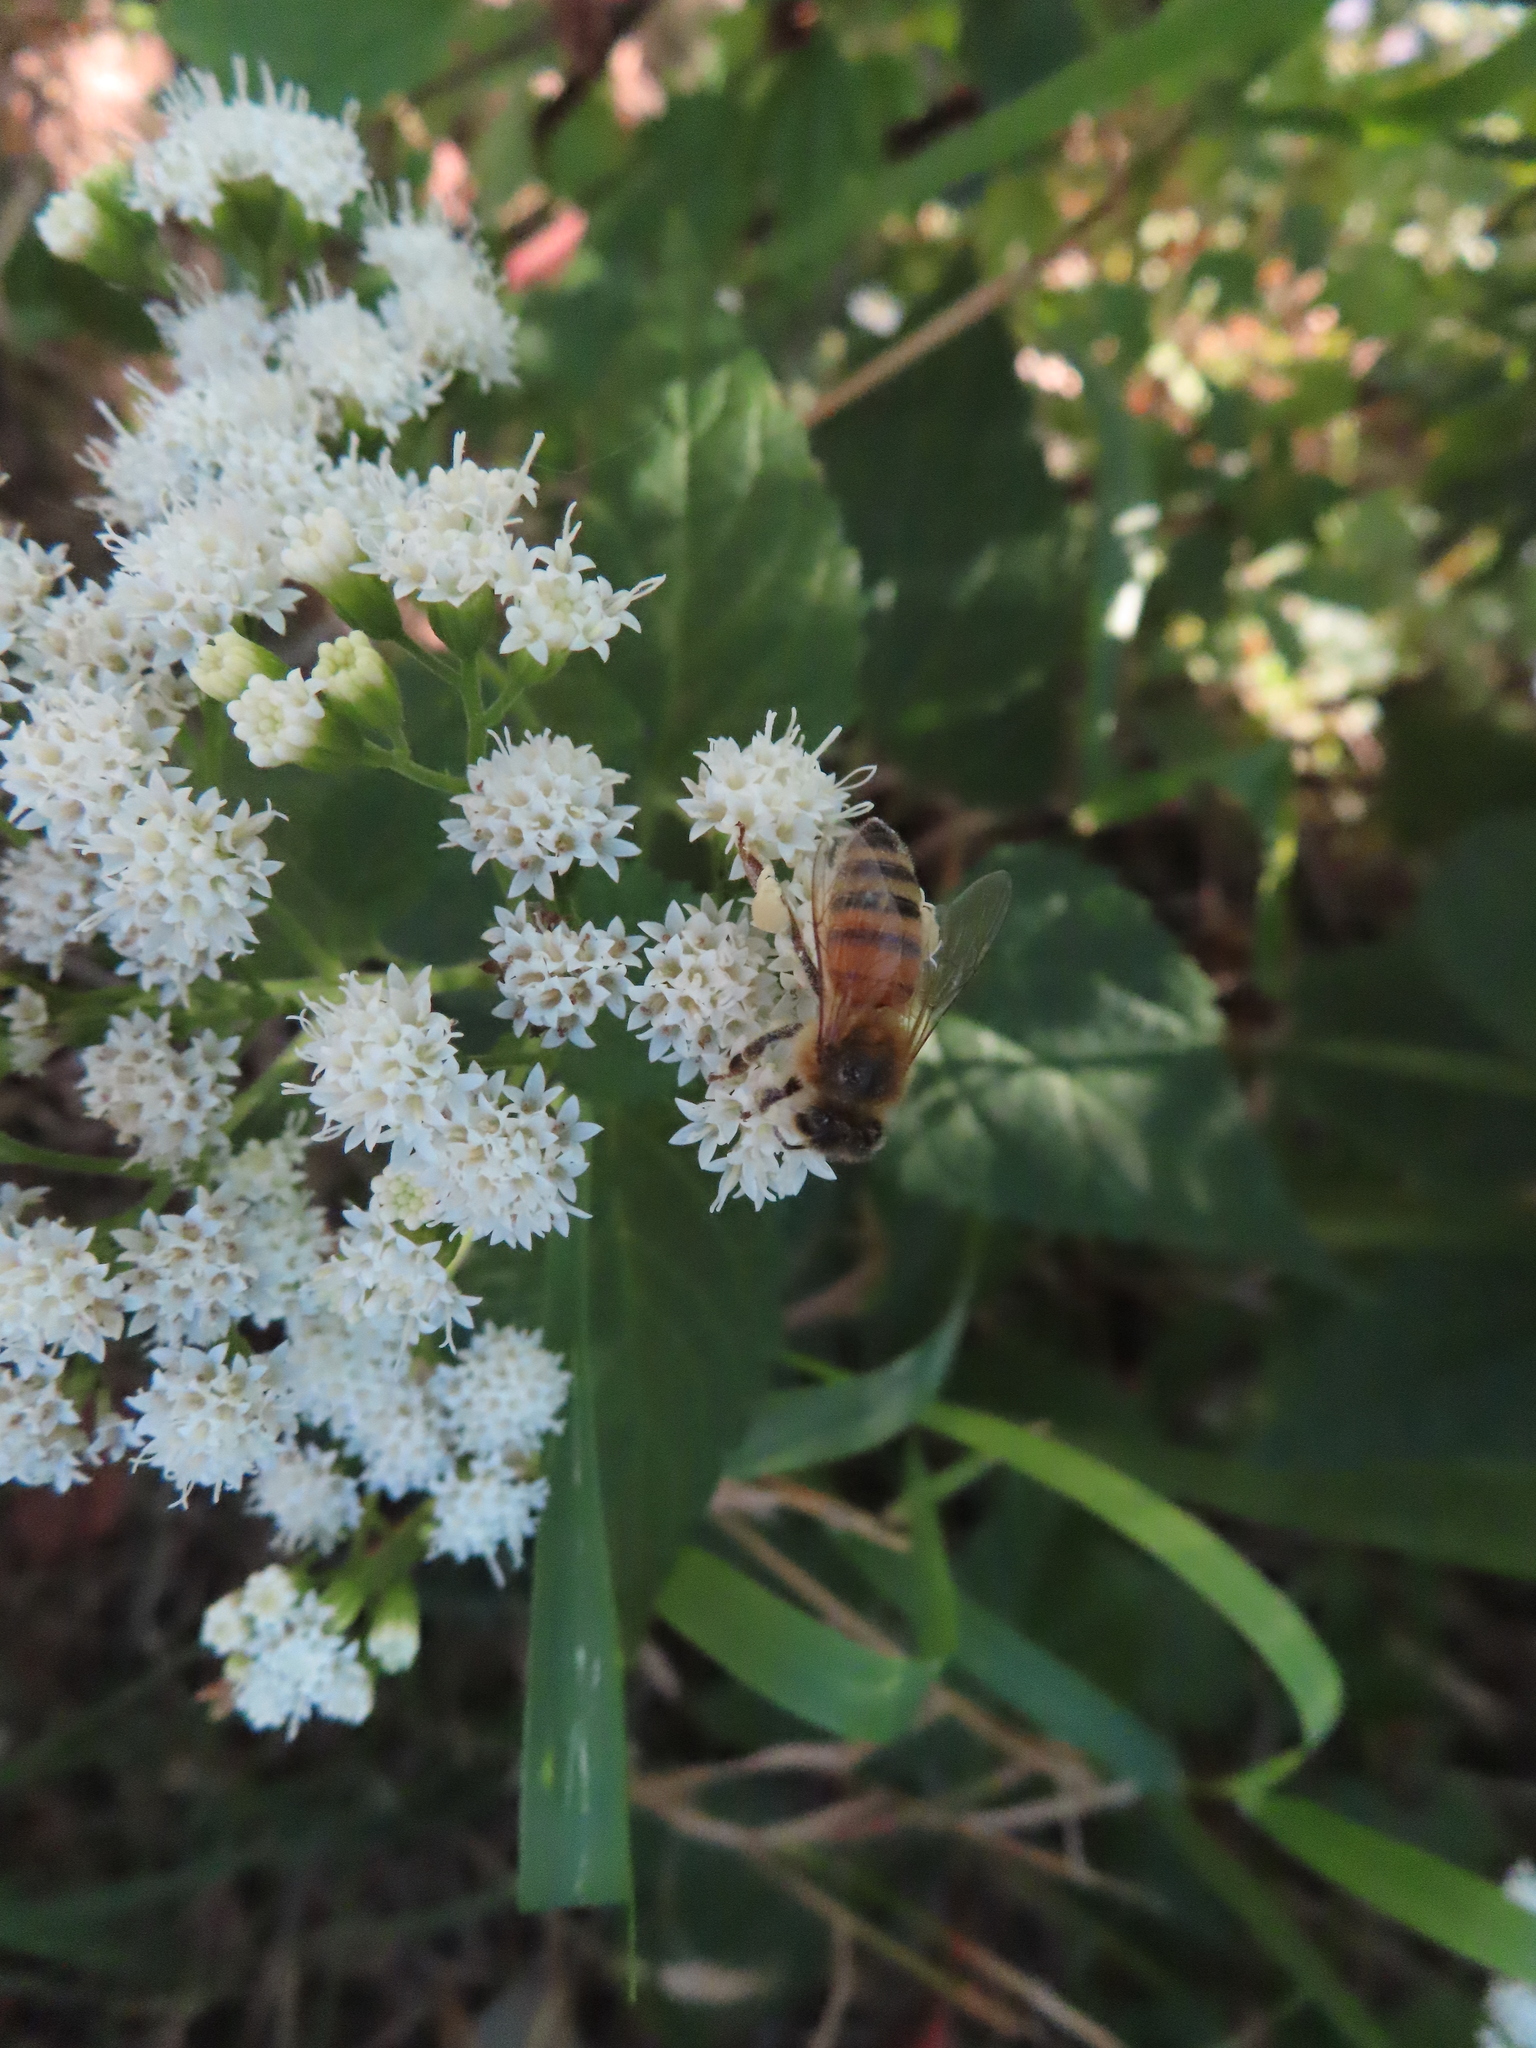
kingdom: Animalia
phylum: Arthropoda
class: Insecta
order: Hymenoptera
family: Apidae
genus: Apis
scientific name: Apis mellifera
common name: Honey bee
